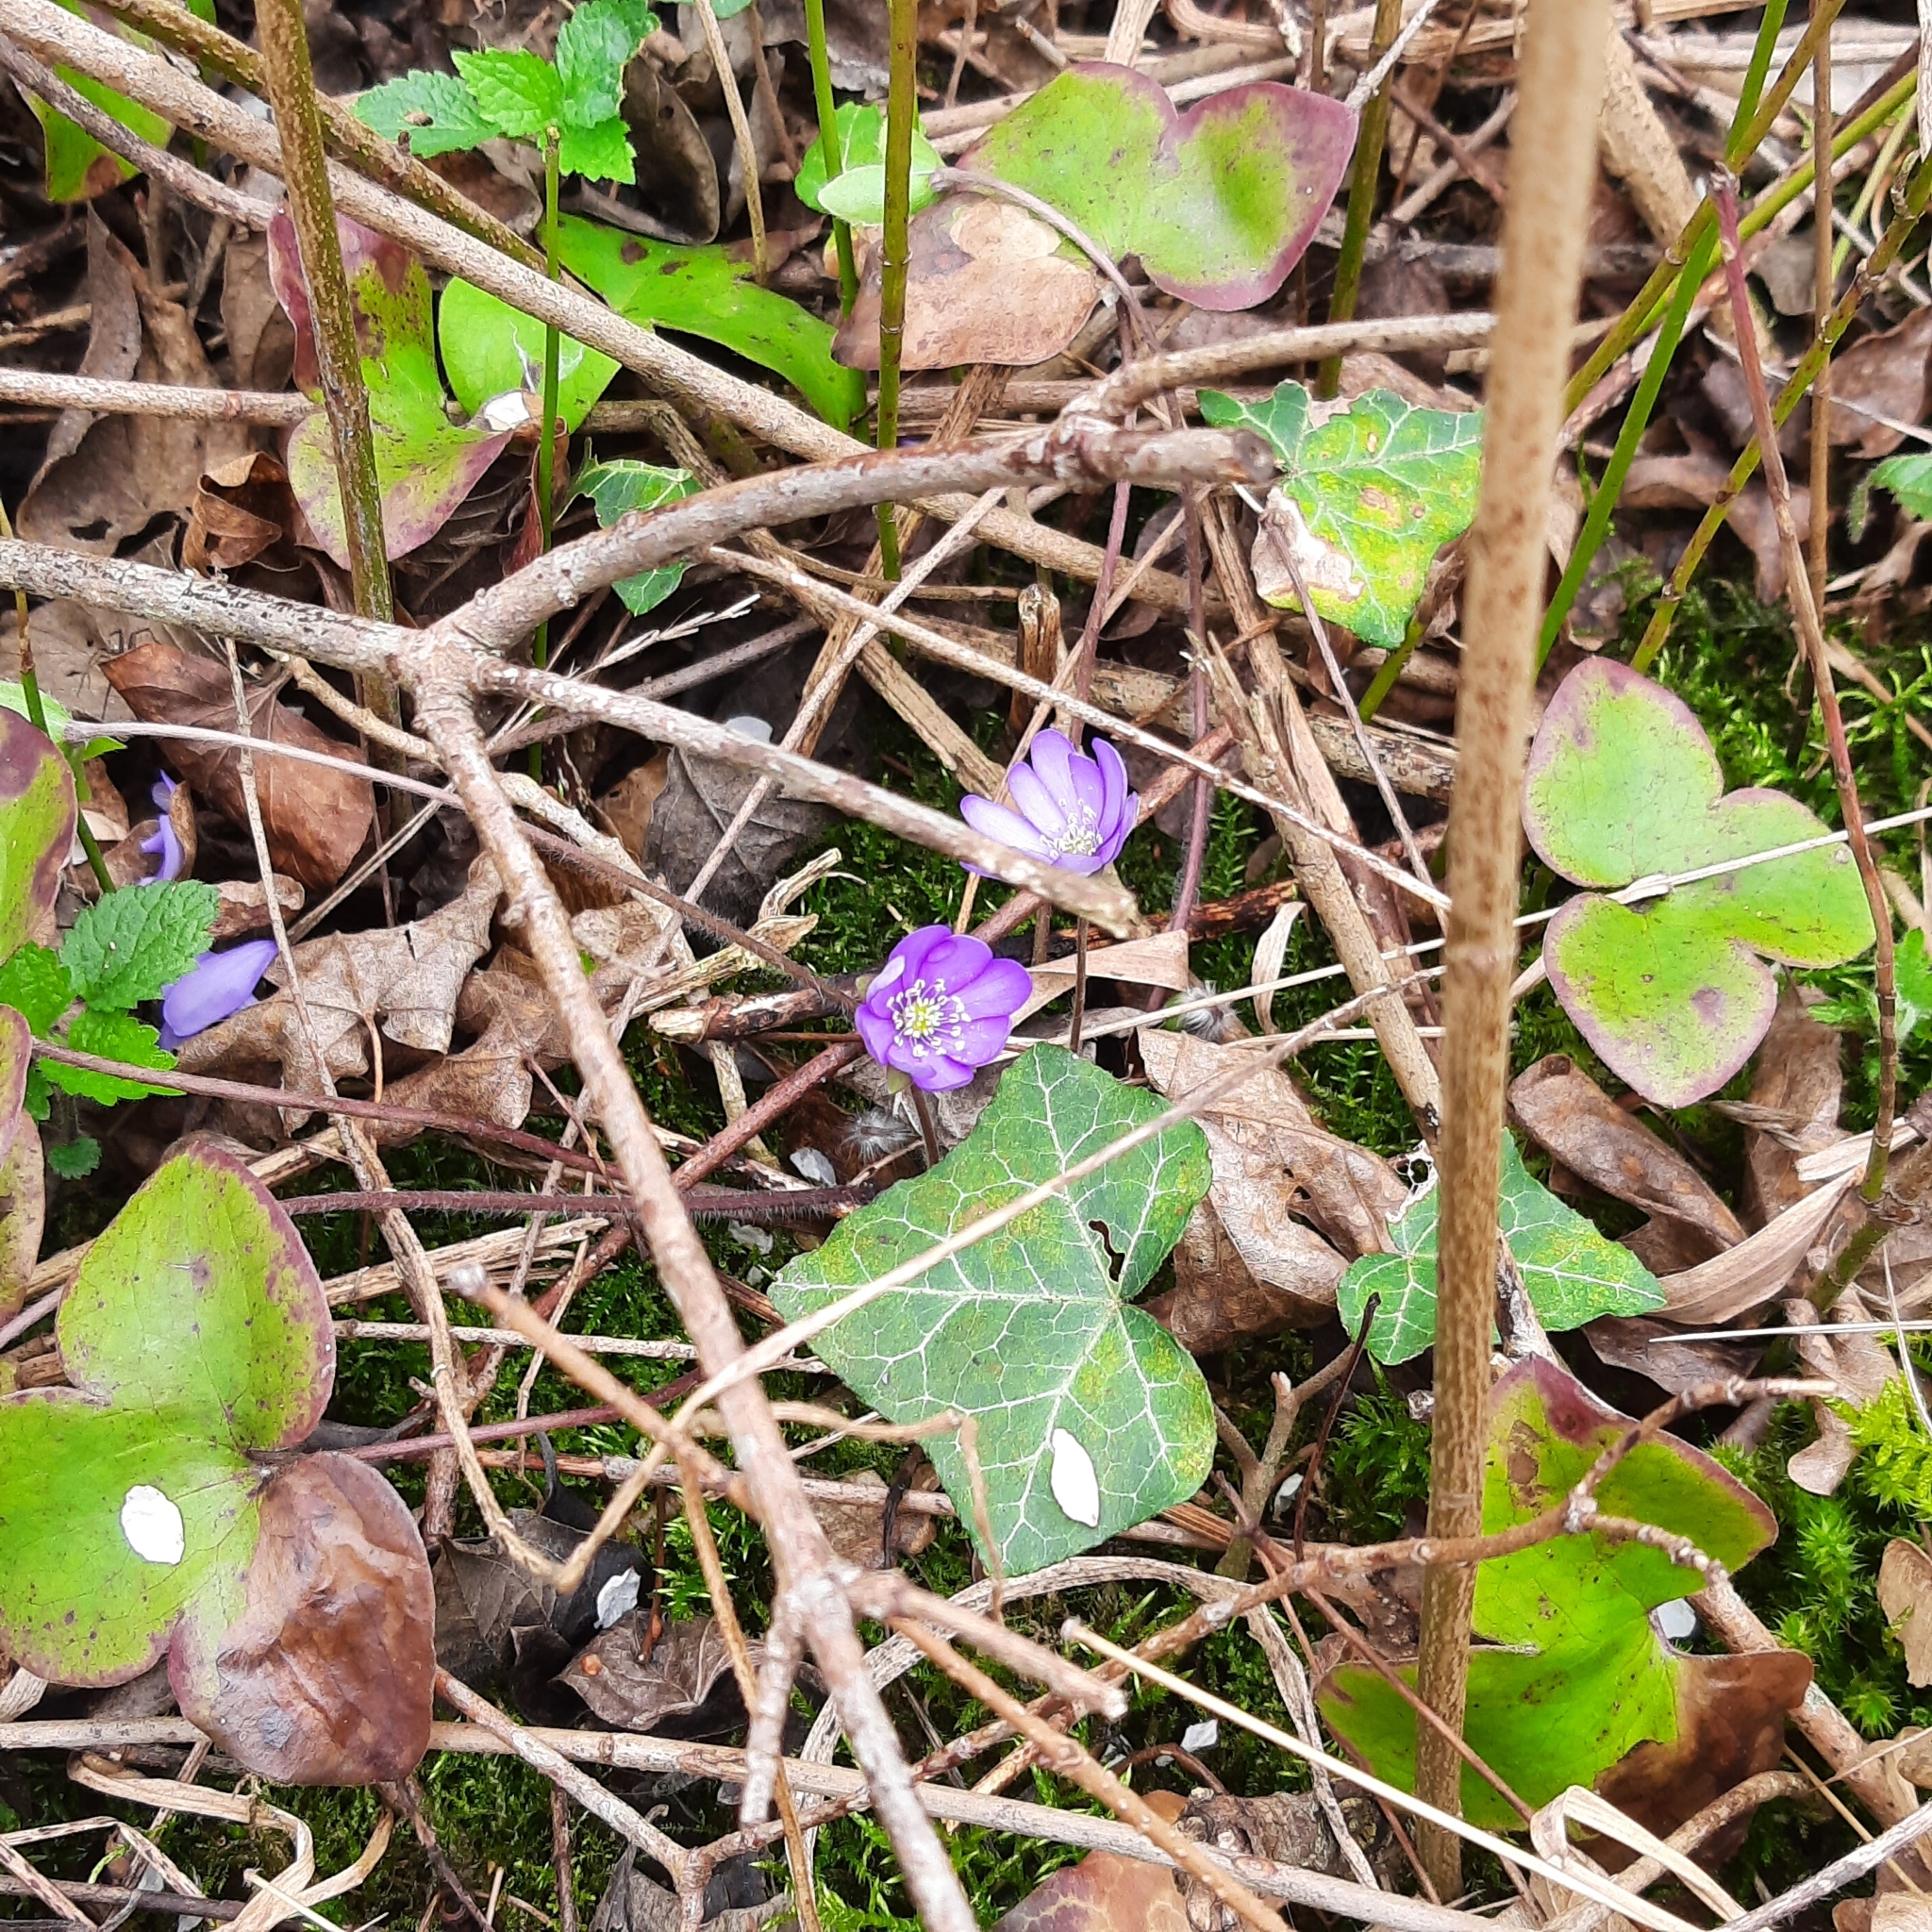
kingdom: Plantae
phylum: Tracheophyta
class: Magnoliopsida
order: Ranunculales
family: Ranunculaceae
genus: Hepatica
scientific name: Hepatica nobilis
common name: Liverleaf
